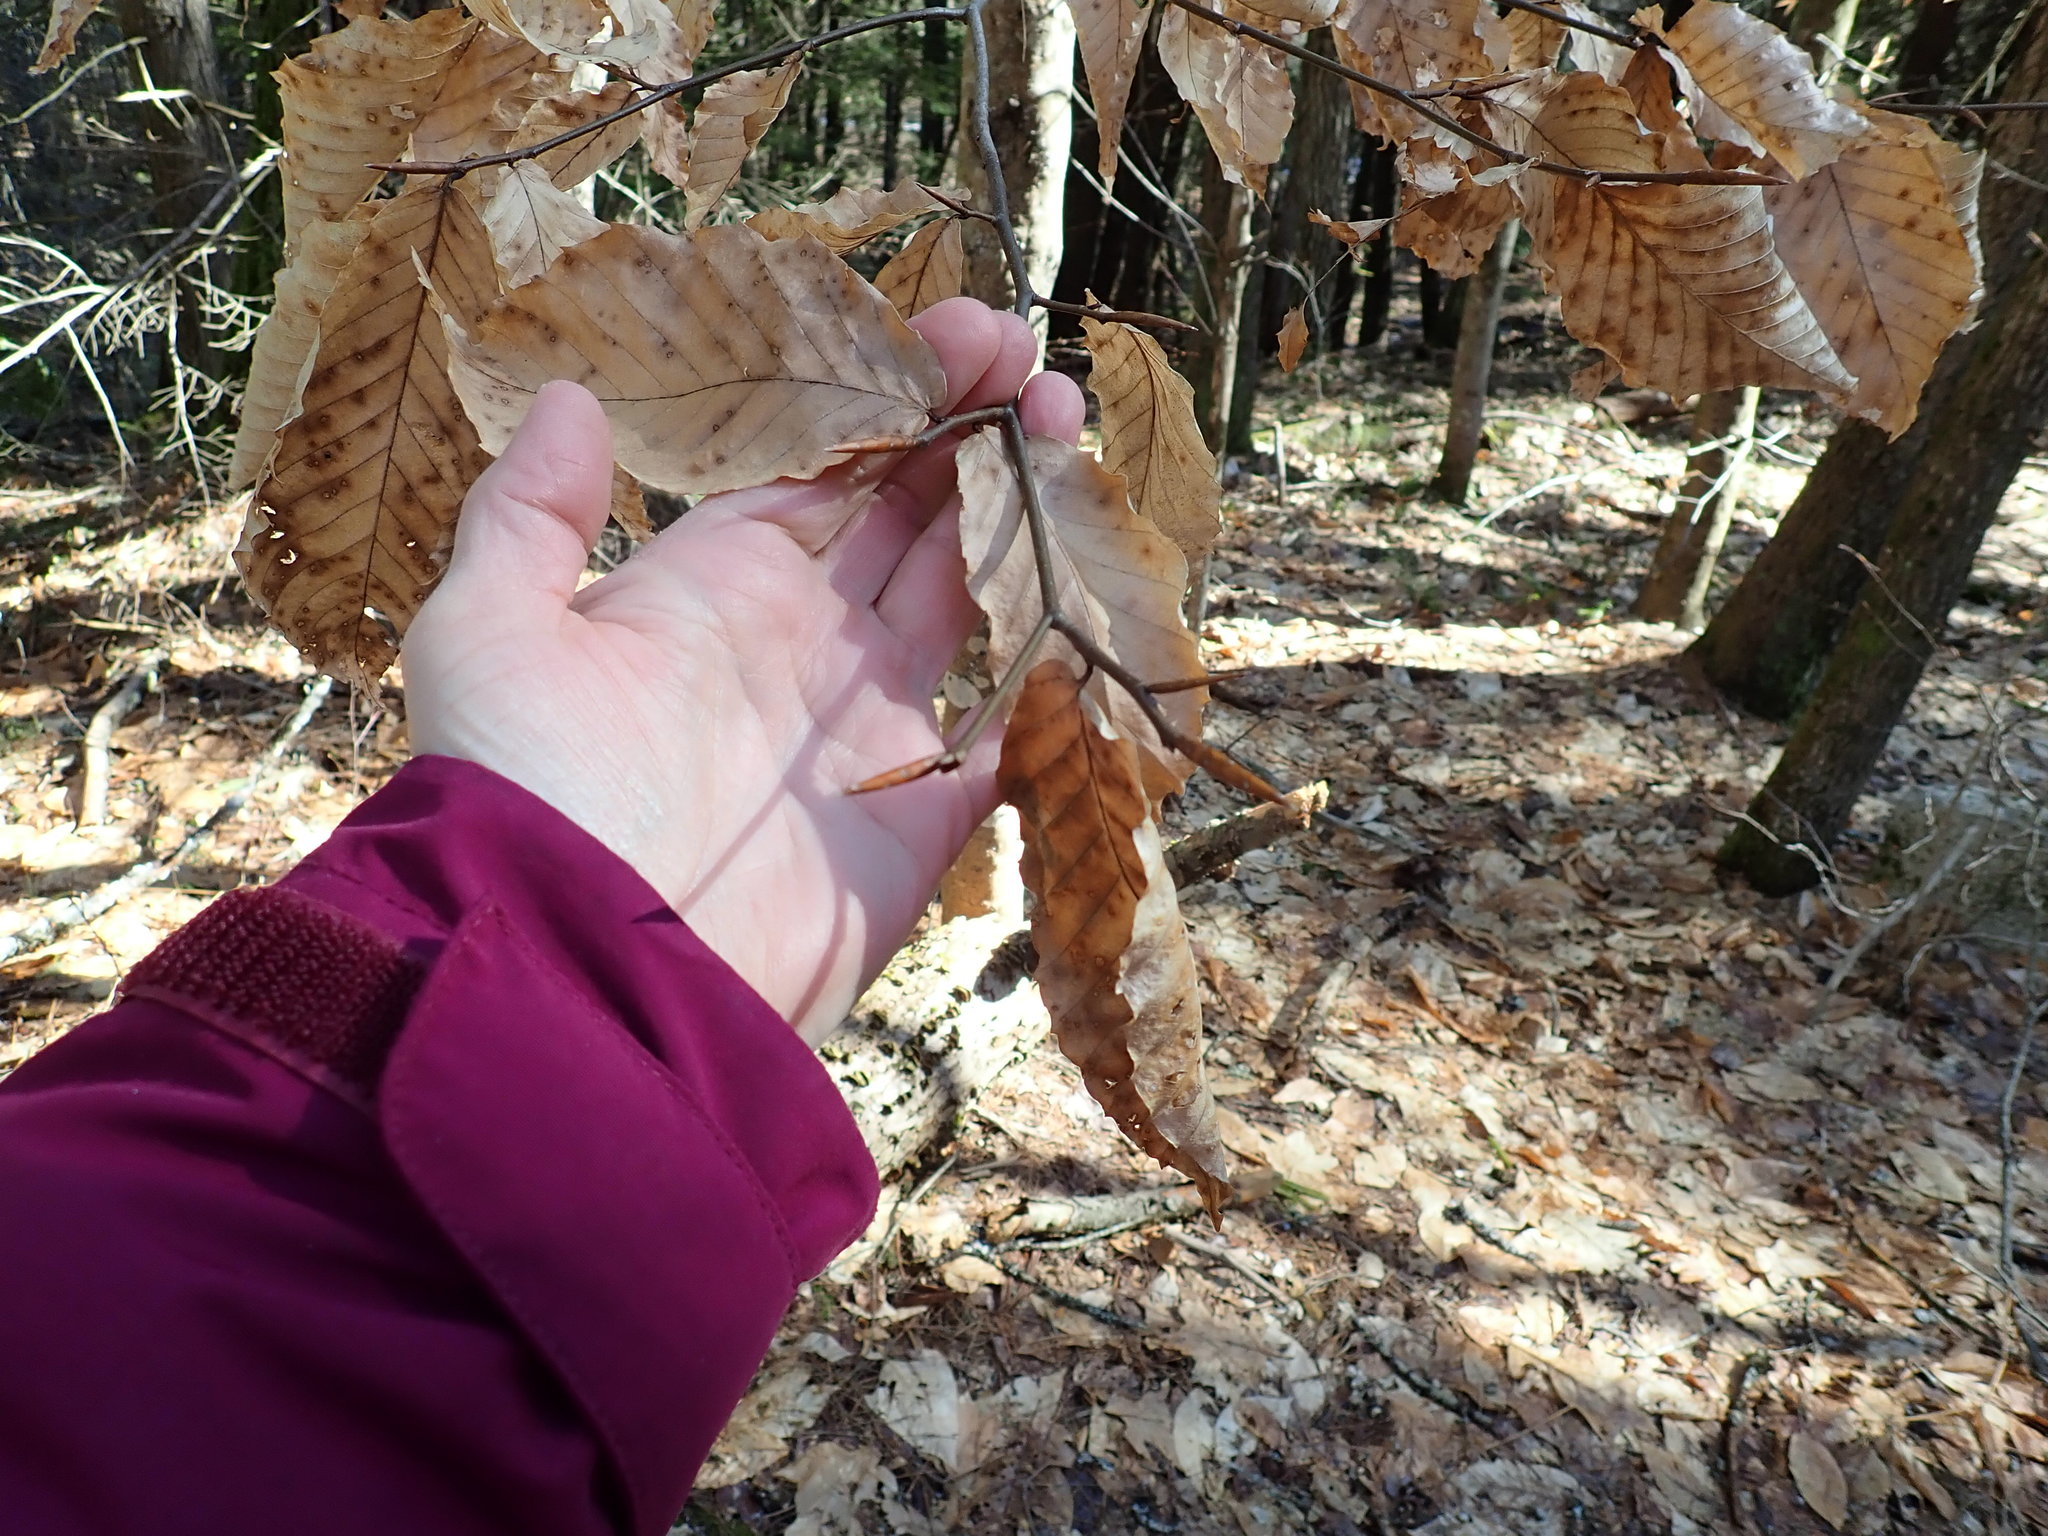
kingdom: Plantae
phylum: Tracheophyta
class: Magnoliopsida
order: Fagales
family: Fagaceae
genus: Fagus
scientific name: Fagus grandifolia
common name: American beech
